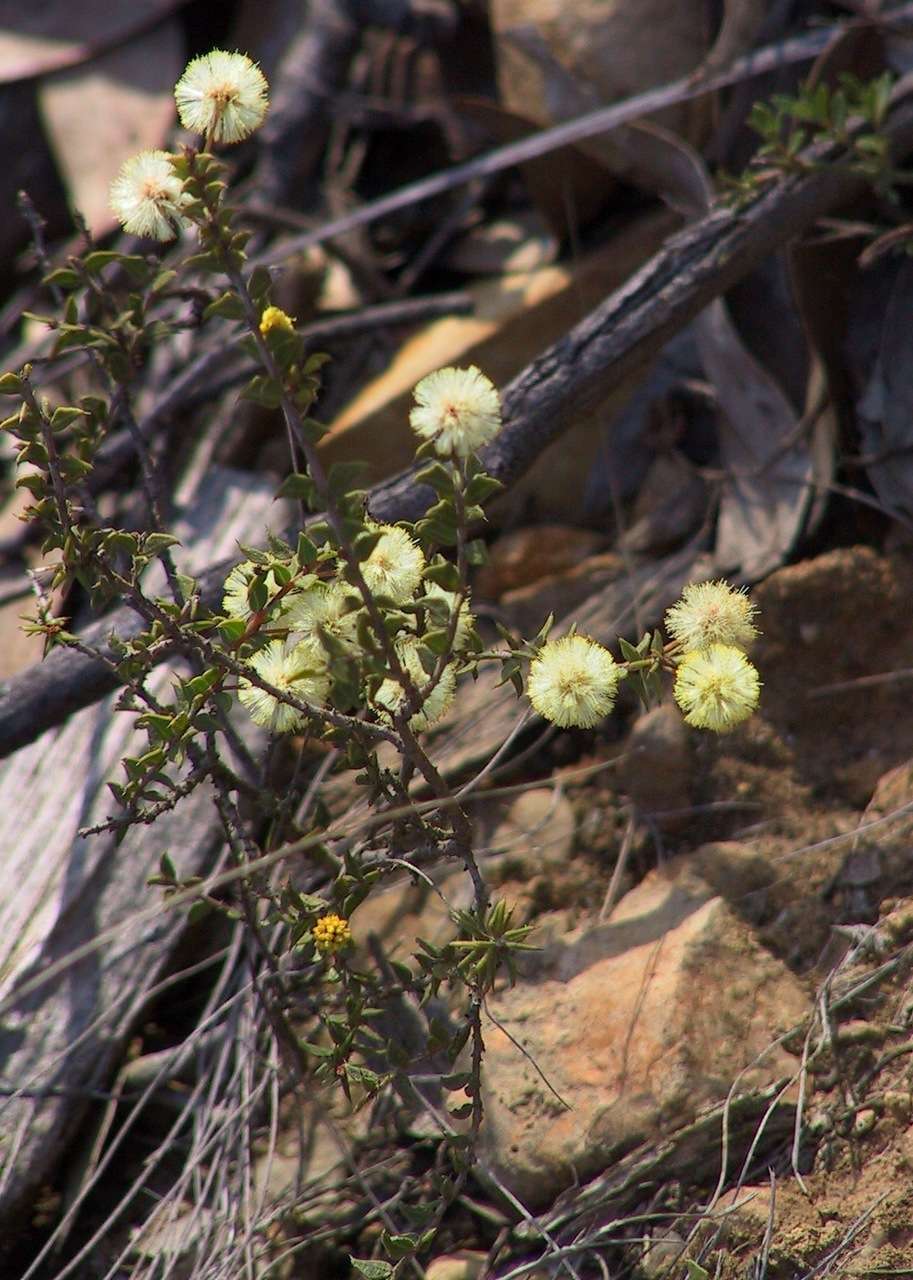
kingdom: Plantae
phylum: Tracheophyta
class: Magnoliopsida
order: Fabales
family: Fabaceae
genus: Acacia
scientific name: Acacia gunnii
